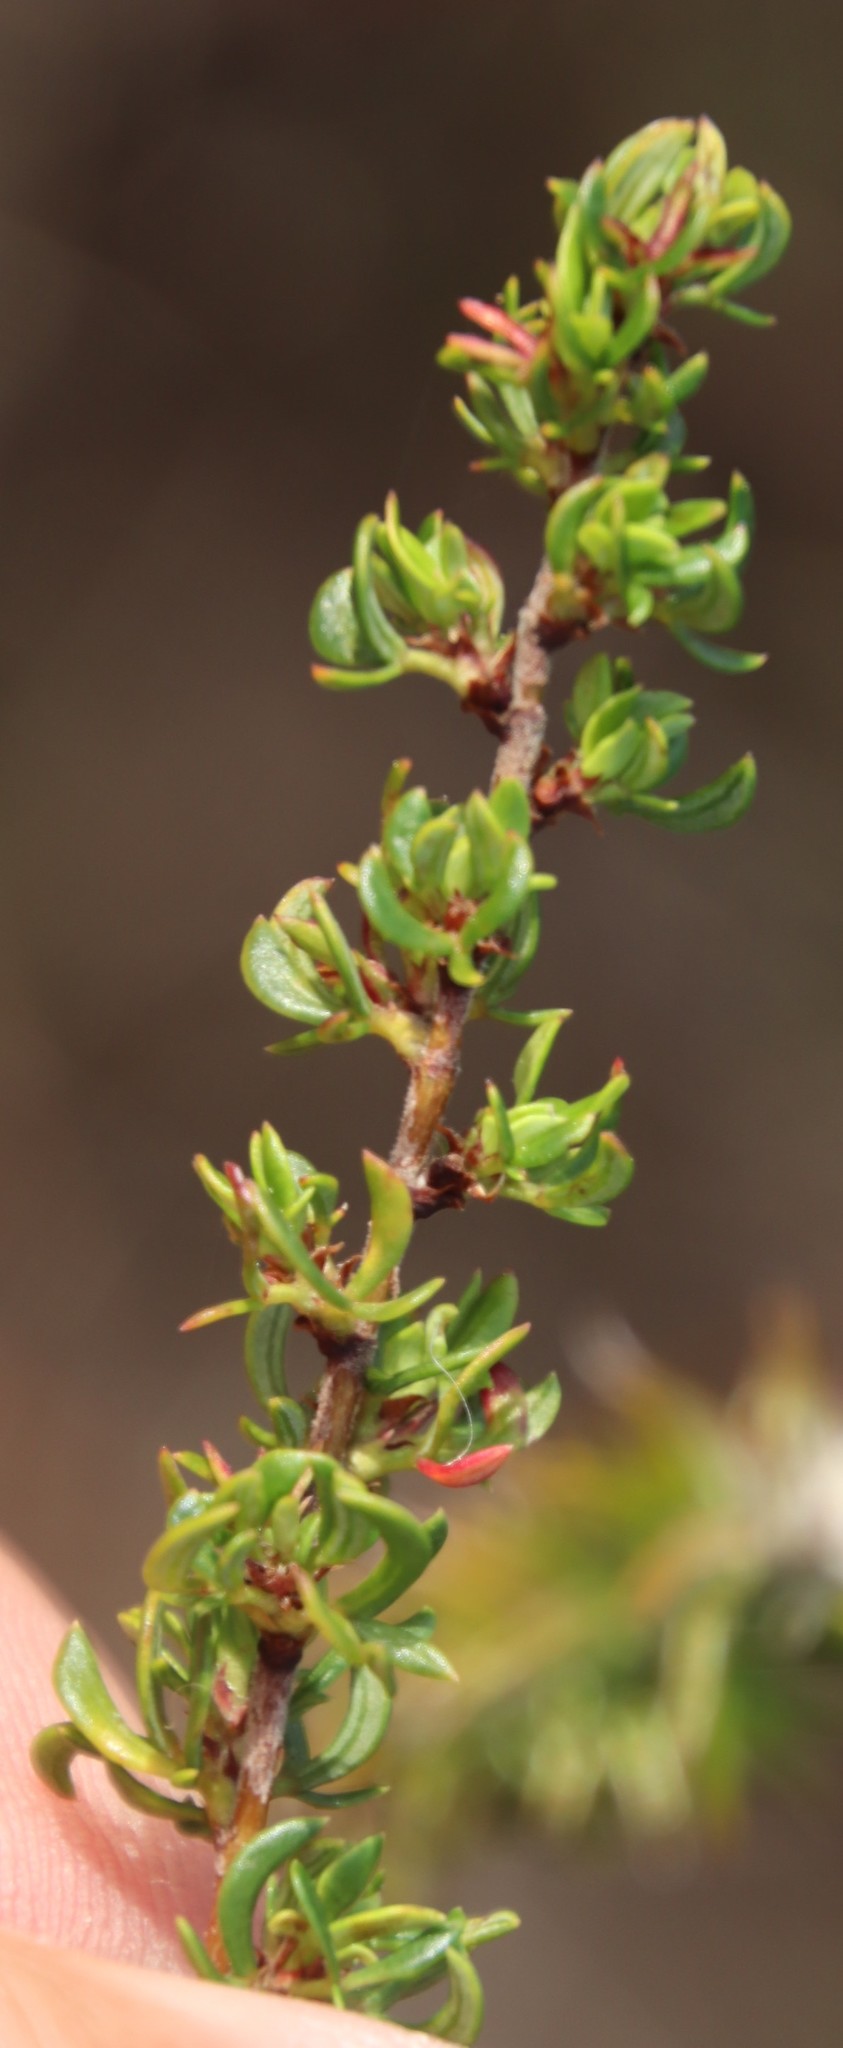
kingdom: Plantae
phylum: Tracheophyta
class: Magnoliopsida
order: Rosales
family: Rosaceae
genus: Cliffortia
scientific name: Cliffortia falcata
